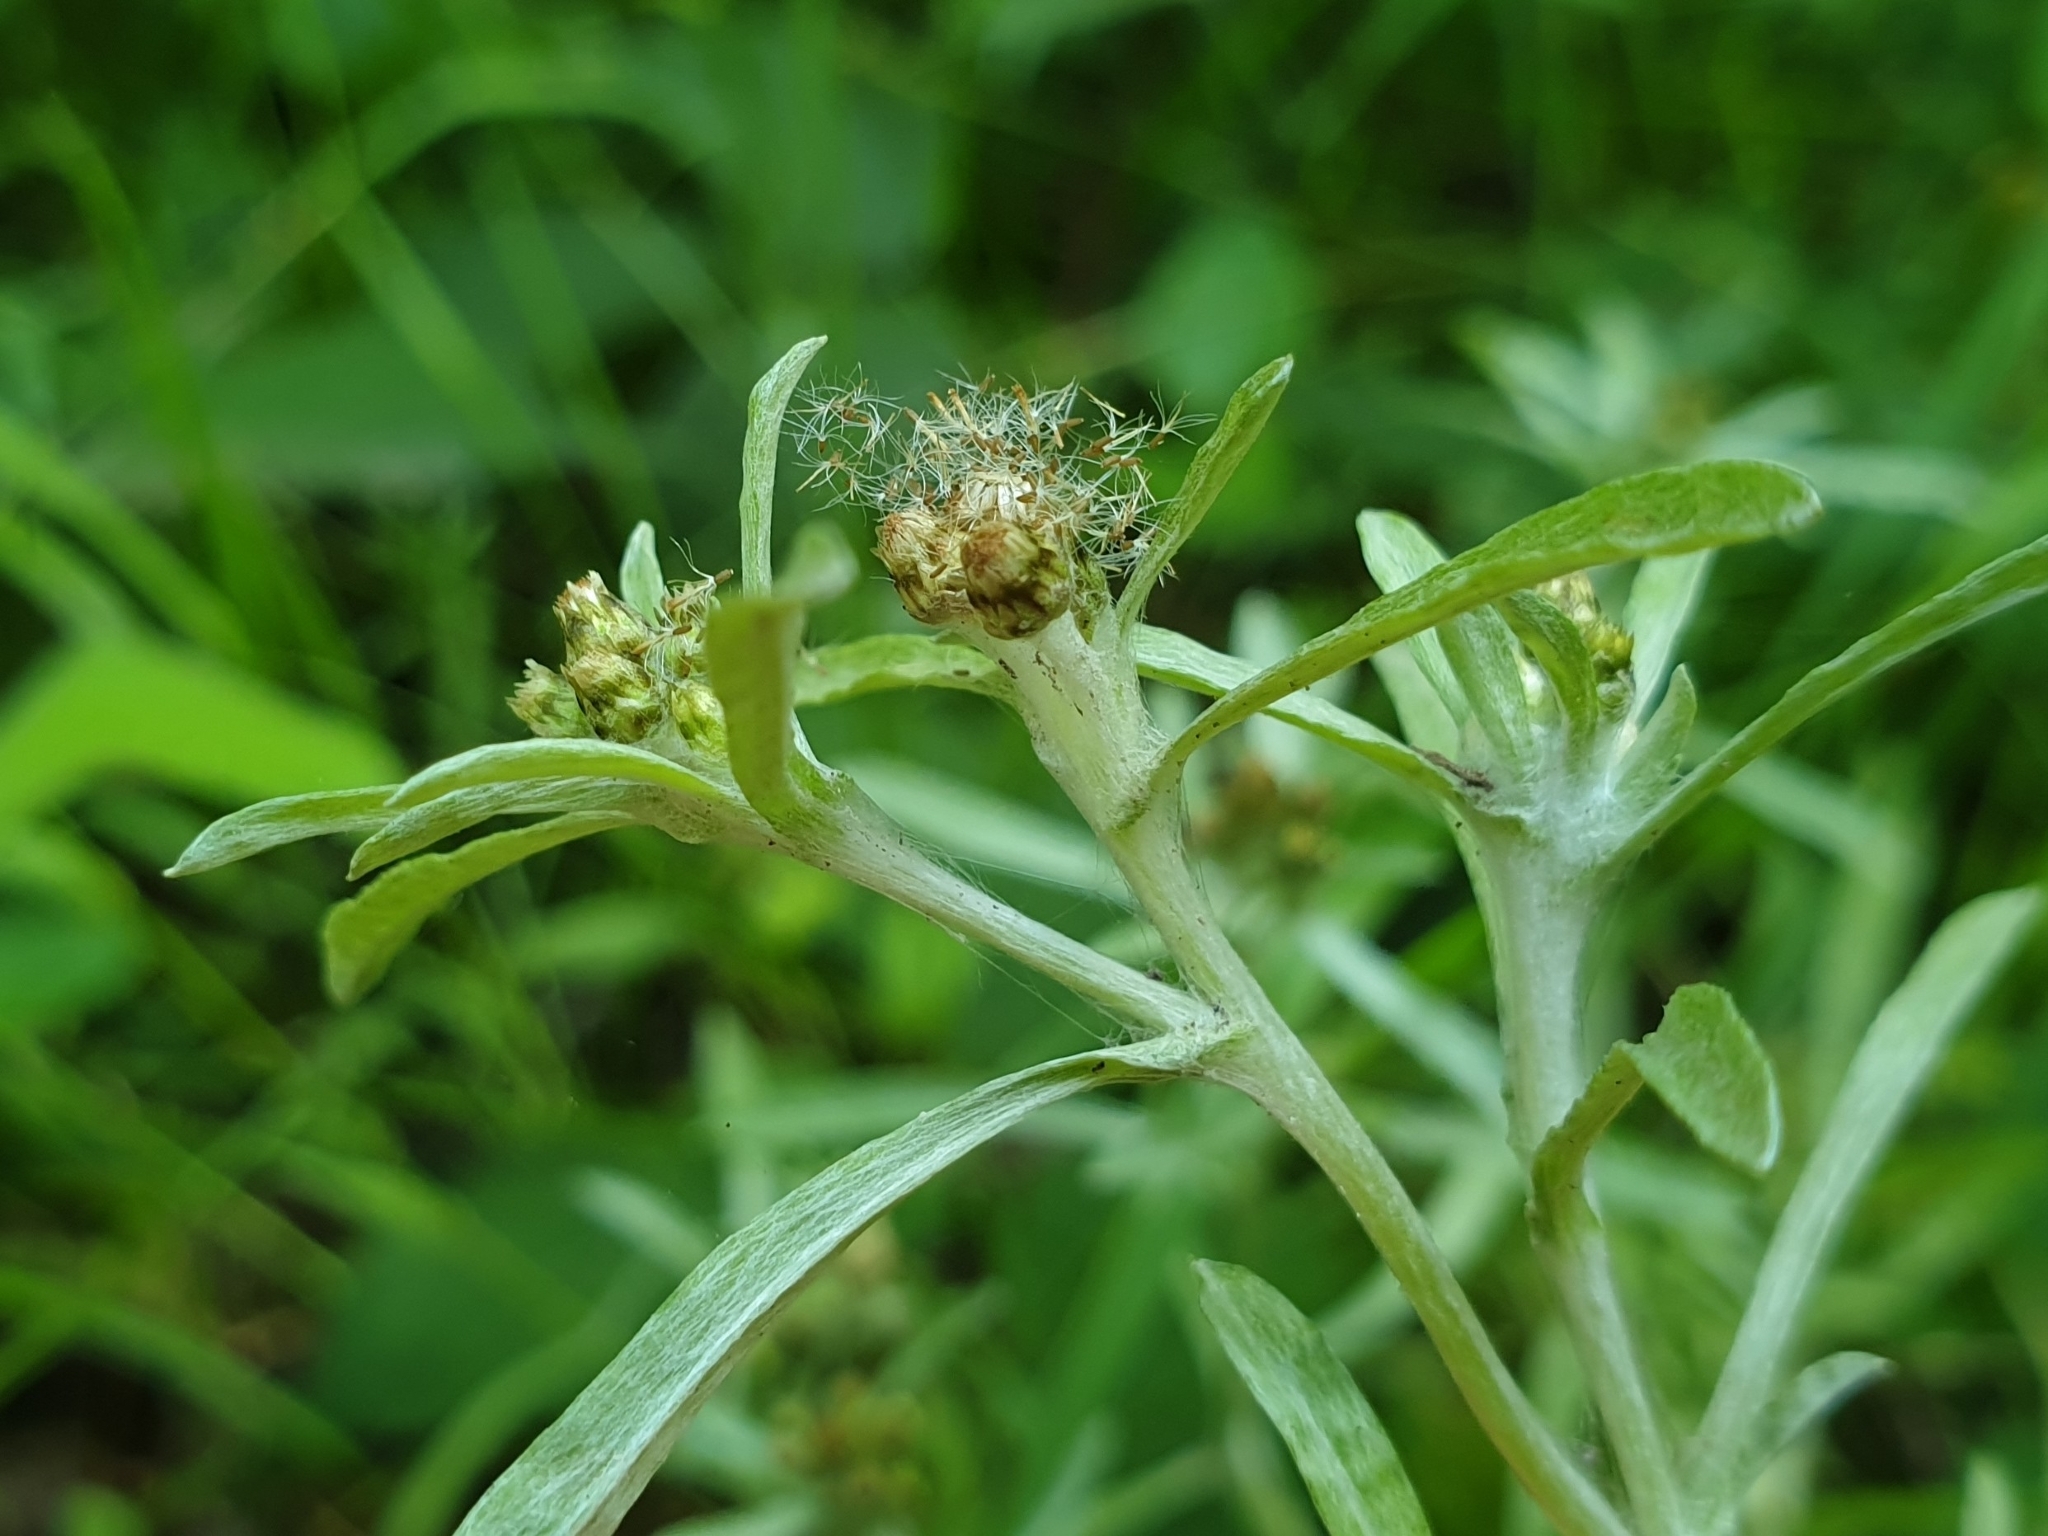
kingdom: Plantae
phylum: Tracheophyta
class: Magnoliopsida
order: Asterales
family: Asteraceae
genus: Gnaphalium
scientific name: Gnaphalium uliginosum
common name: Marsh cudweed
